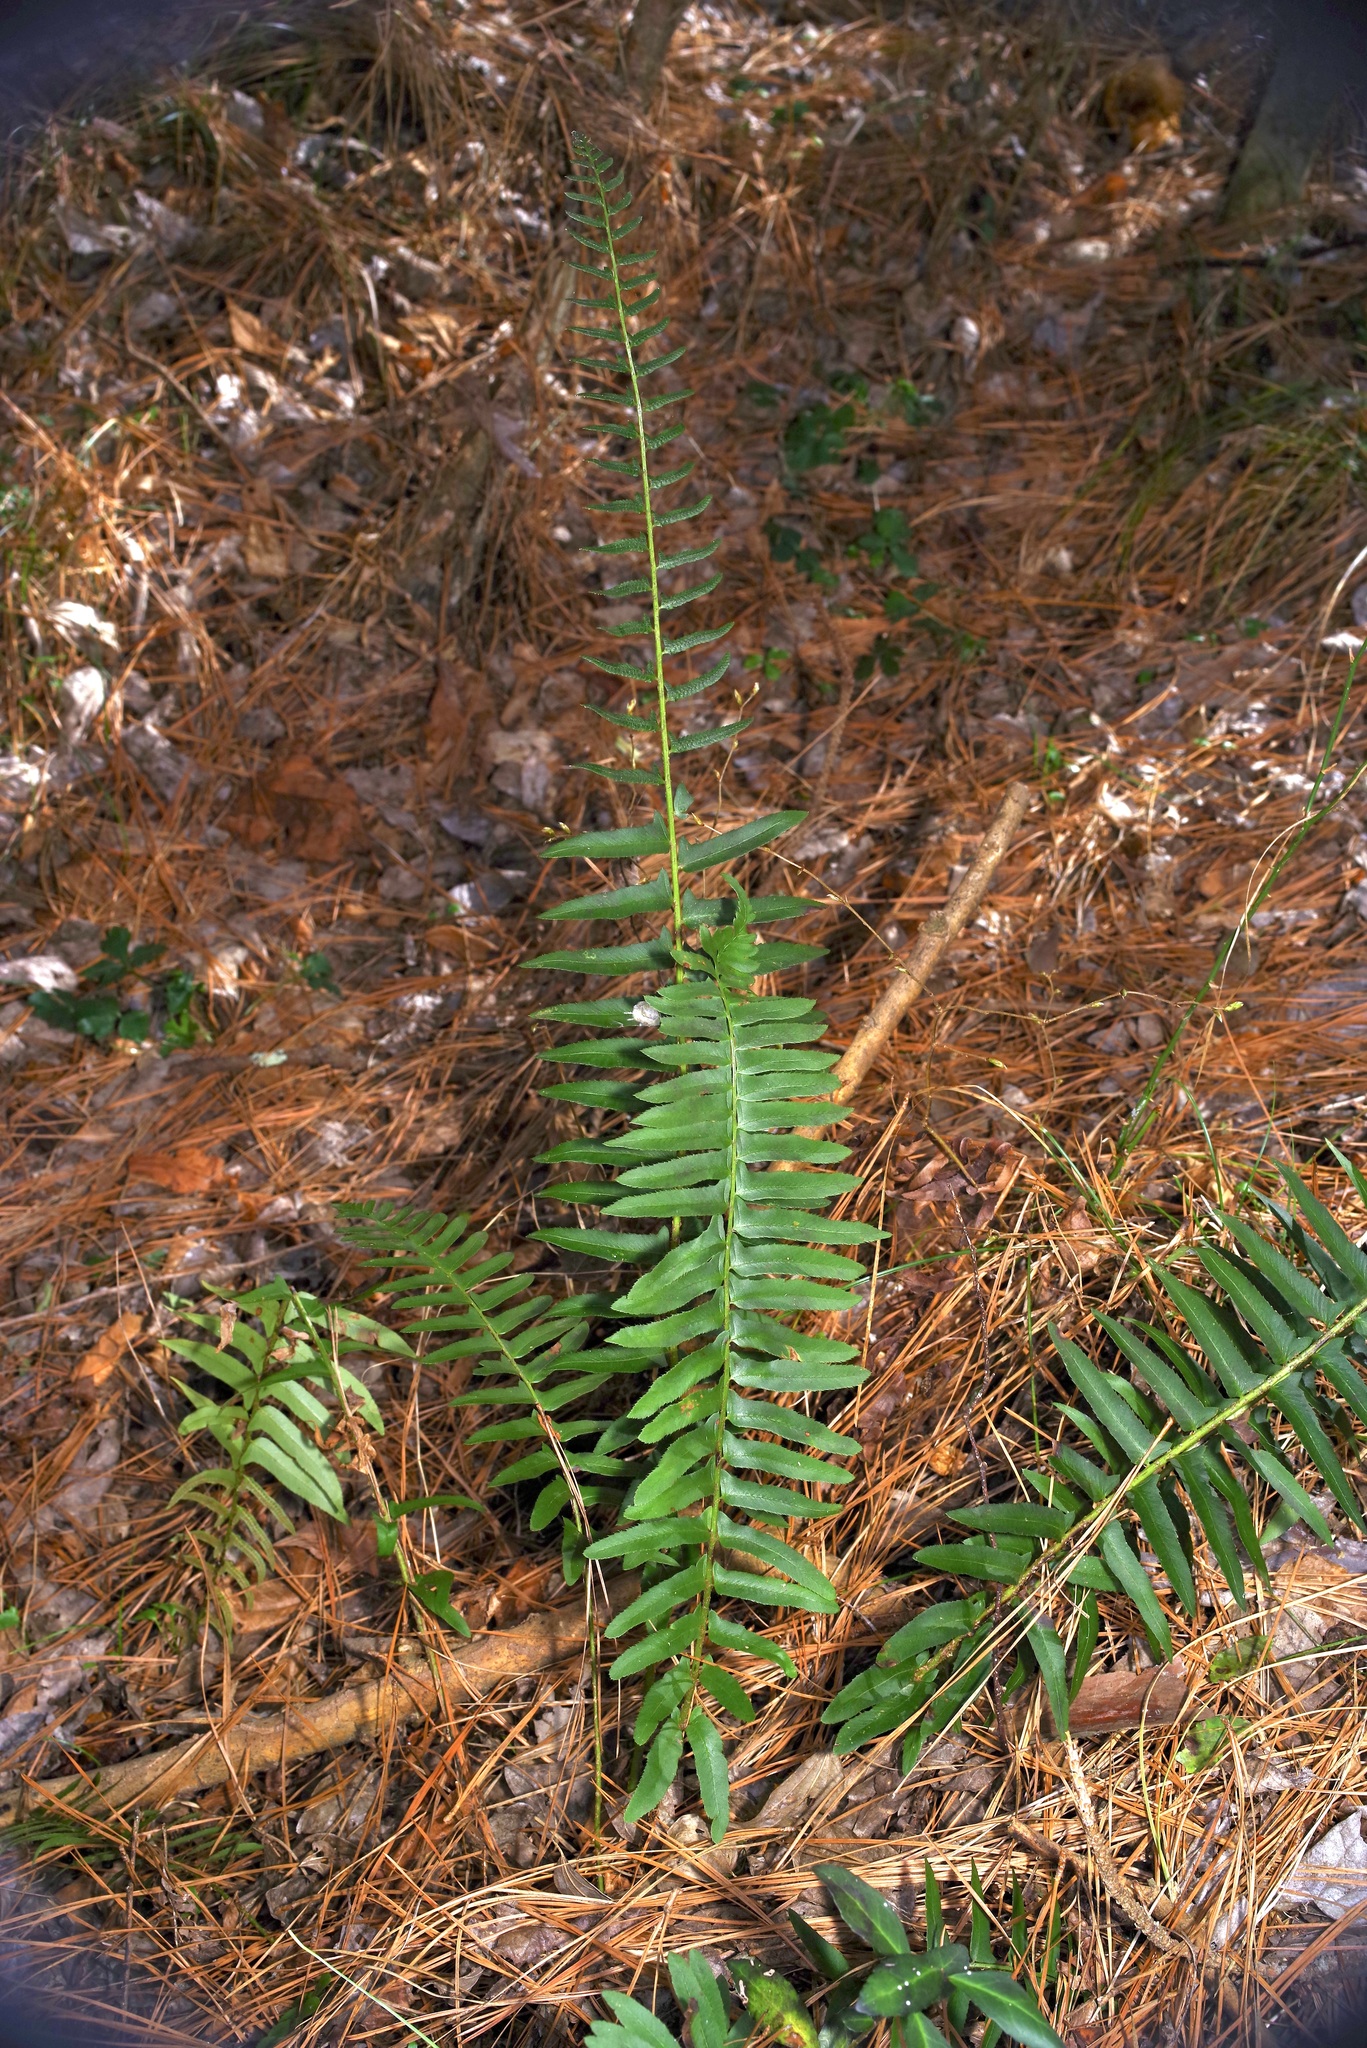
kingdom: Plantae
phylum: Tracheophyta
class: Polypodiopsida
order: Polypodiales
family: Dryopteridaceae
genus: Polystichum
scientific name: Polystichum acrostichoides
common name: Christmas fern
